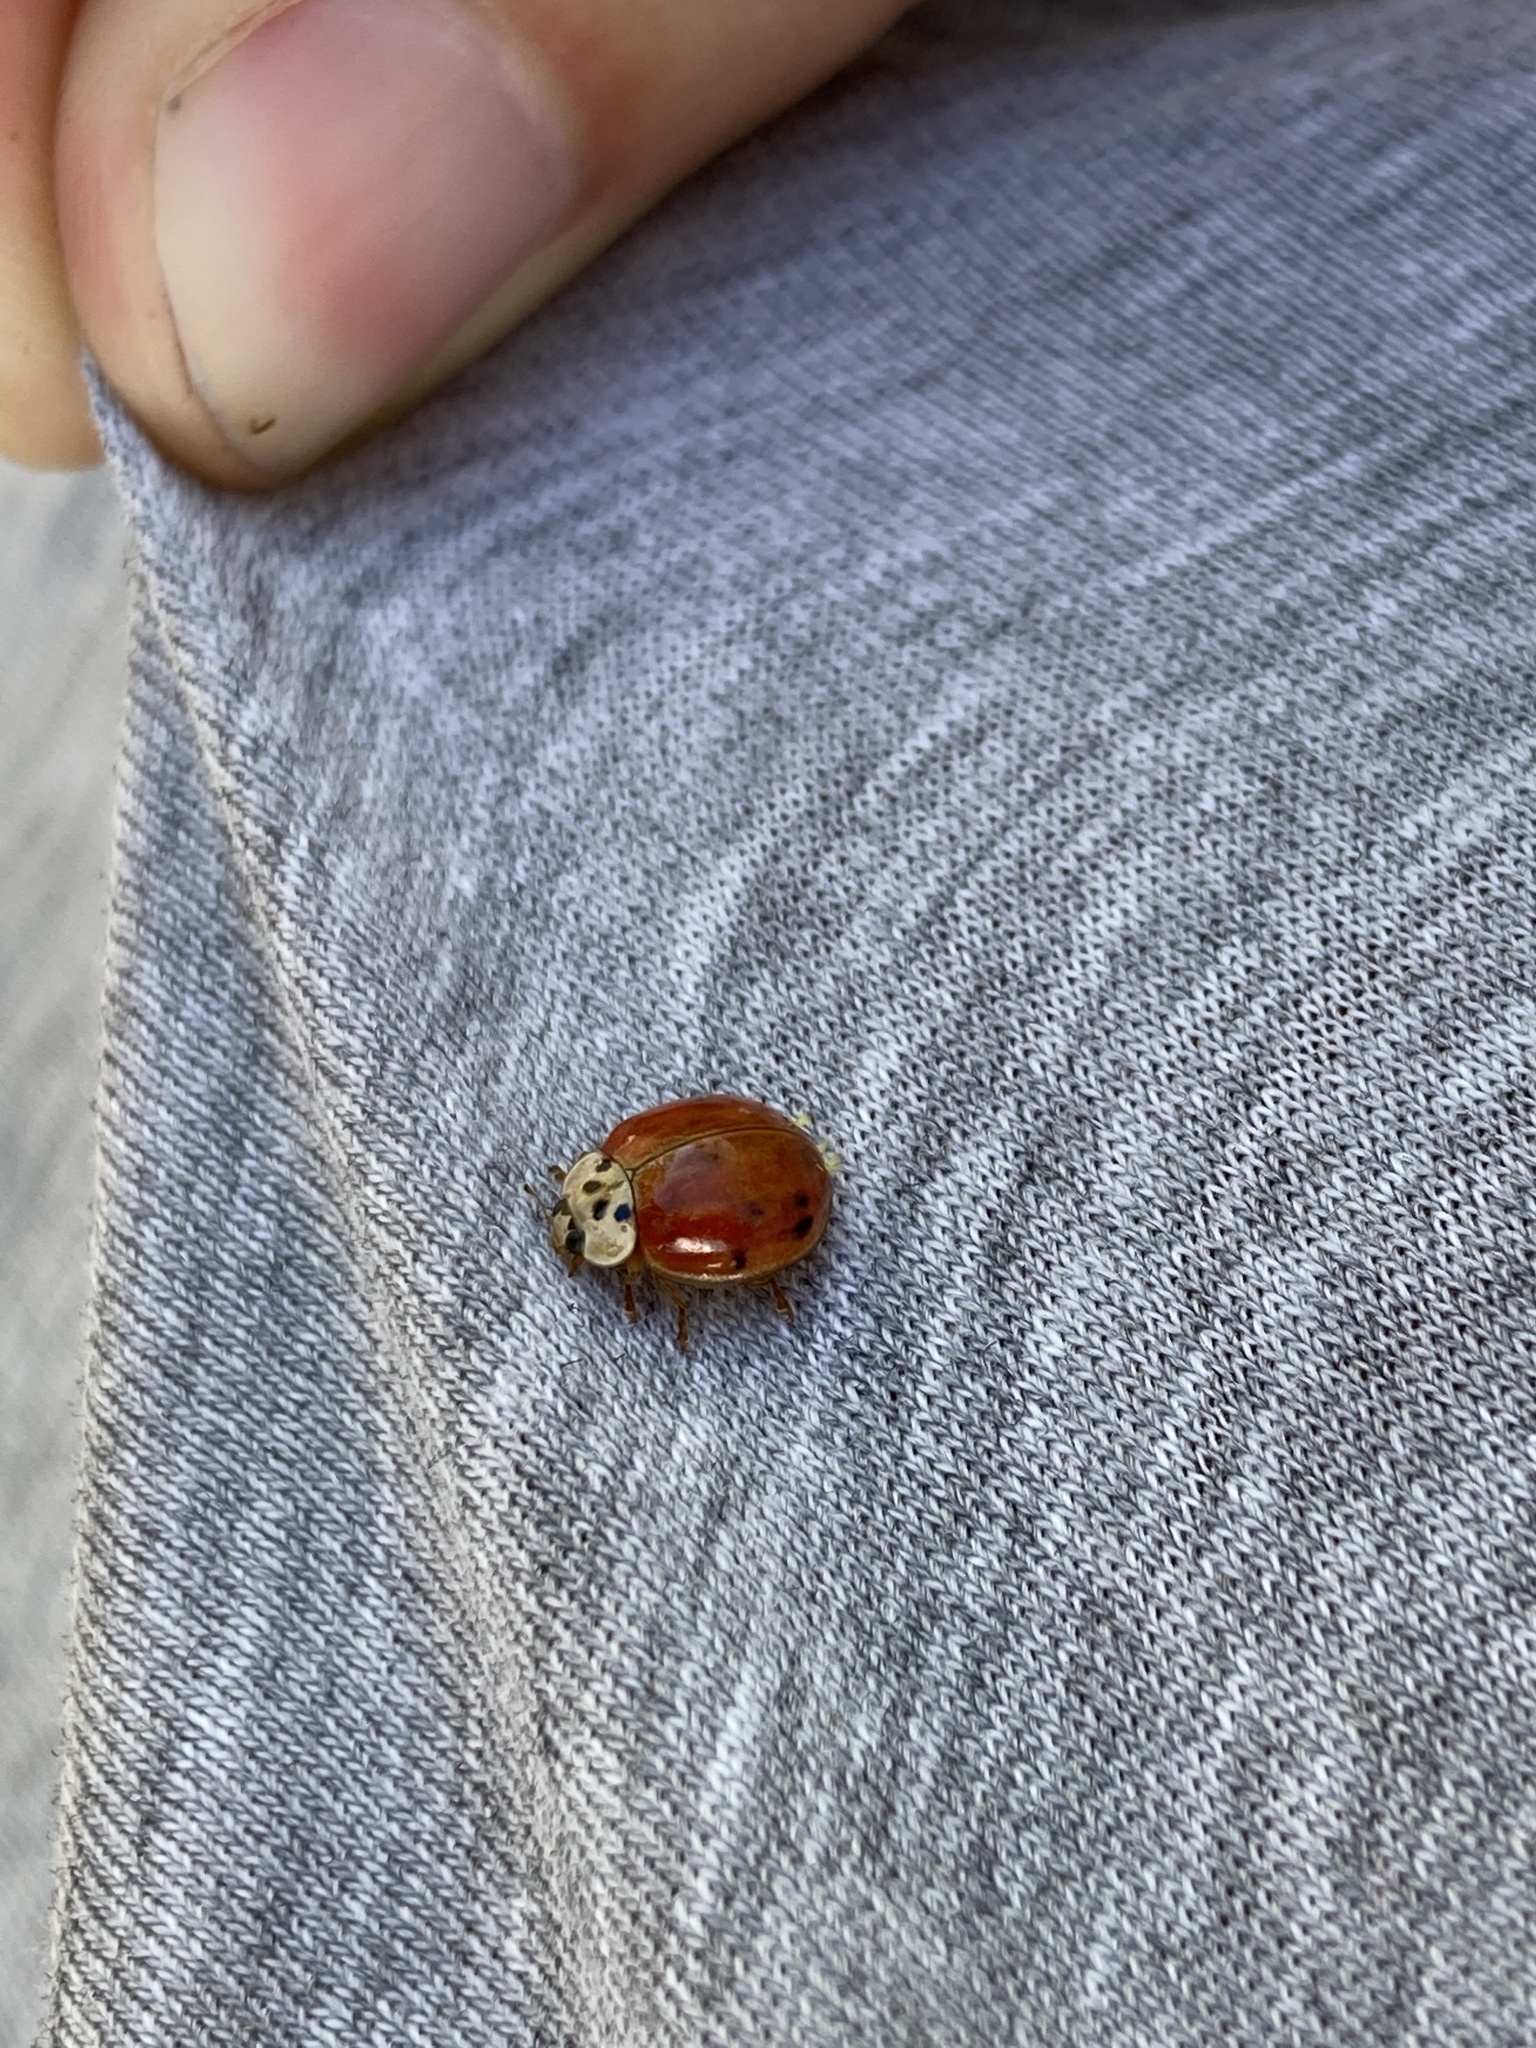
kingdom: Animalia
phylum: Arthropoda
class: Insecta
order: Coleoptera
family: Coccinellidae
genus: Harmonia
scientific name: Harmonia axyridis
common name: Harlequin ladybird
